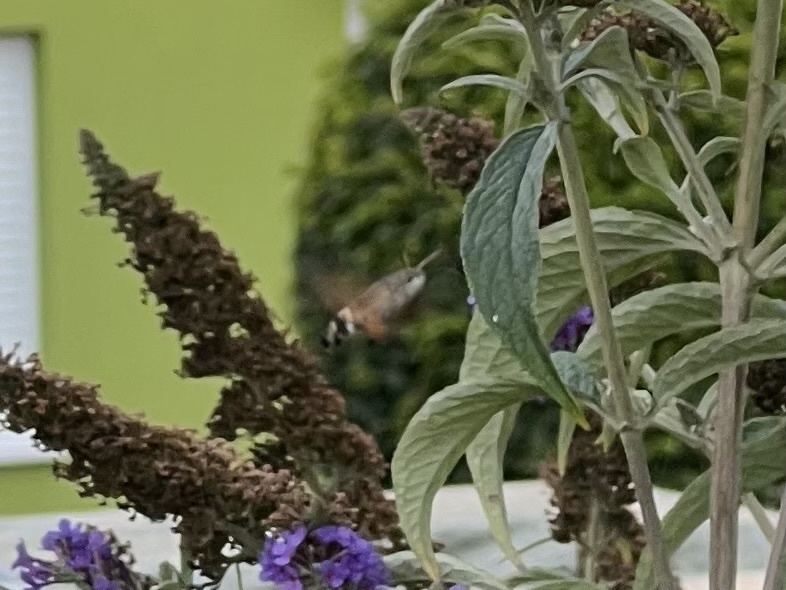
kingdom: Animalia
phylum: Arthropoda
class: Insecta
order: Lepidoptera
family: Sphingidae
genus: Macroglossum
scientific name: Macroglossum stellatarum
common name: Humming-bird hawk-moth
